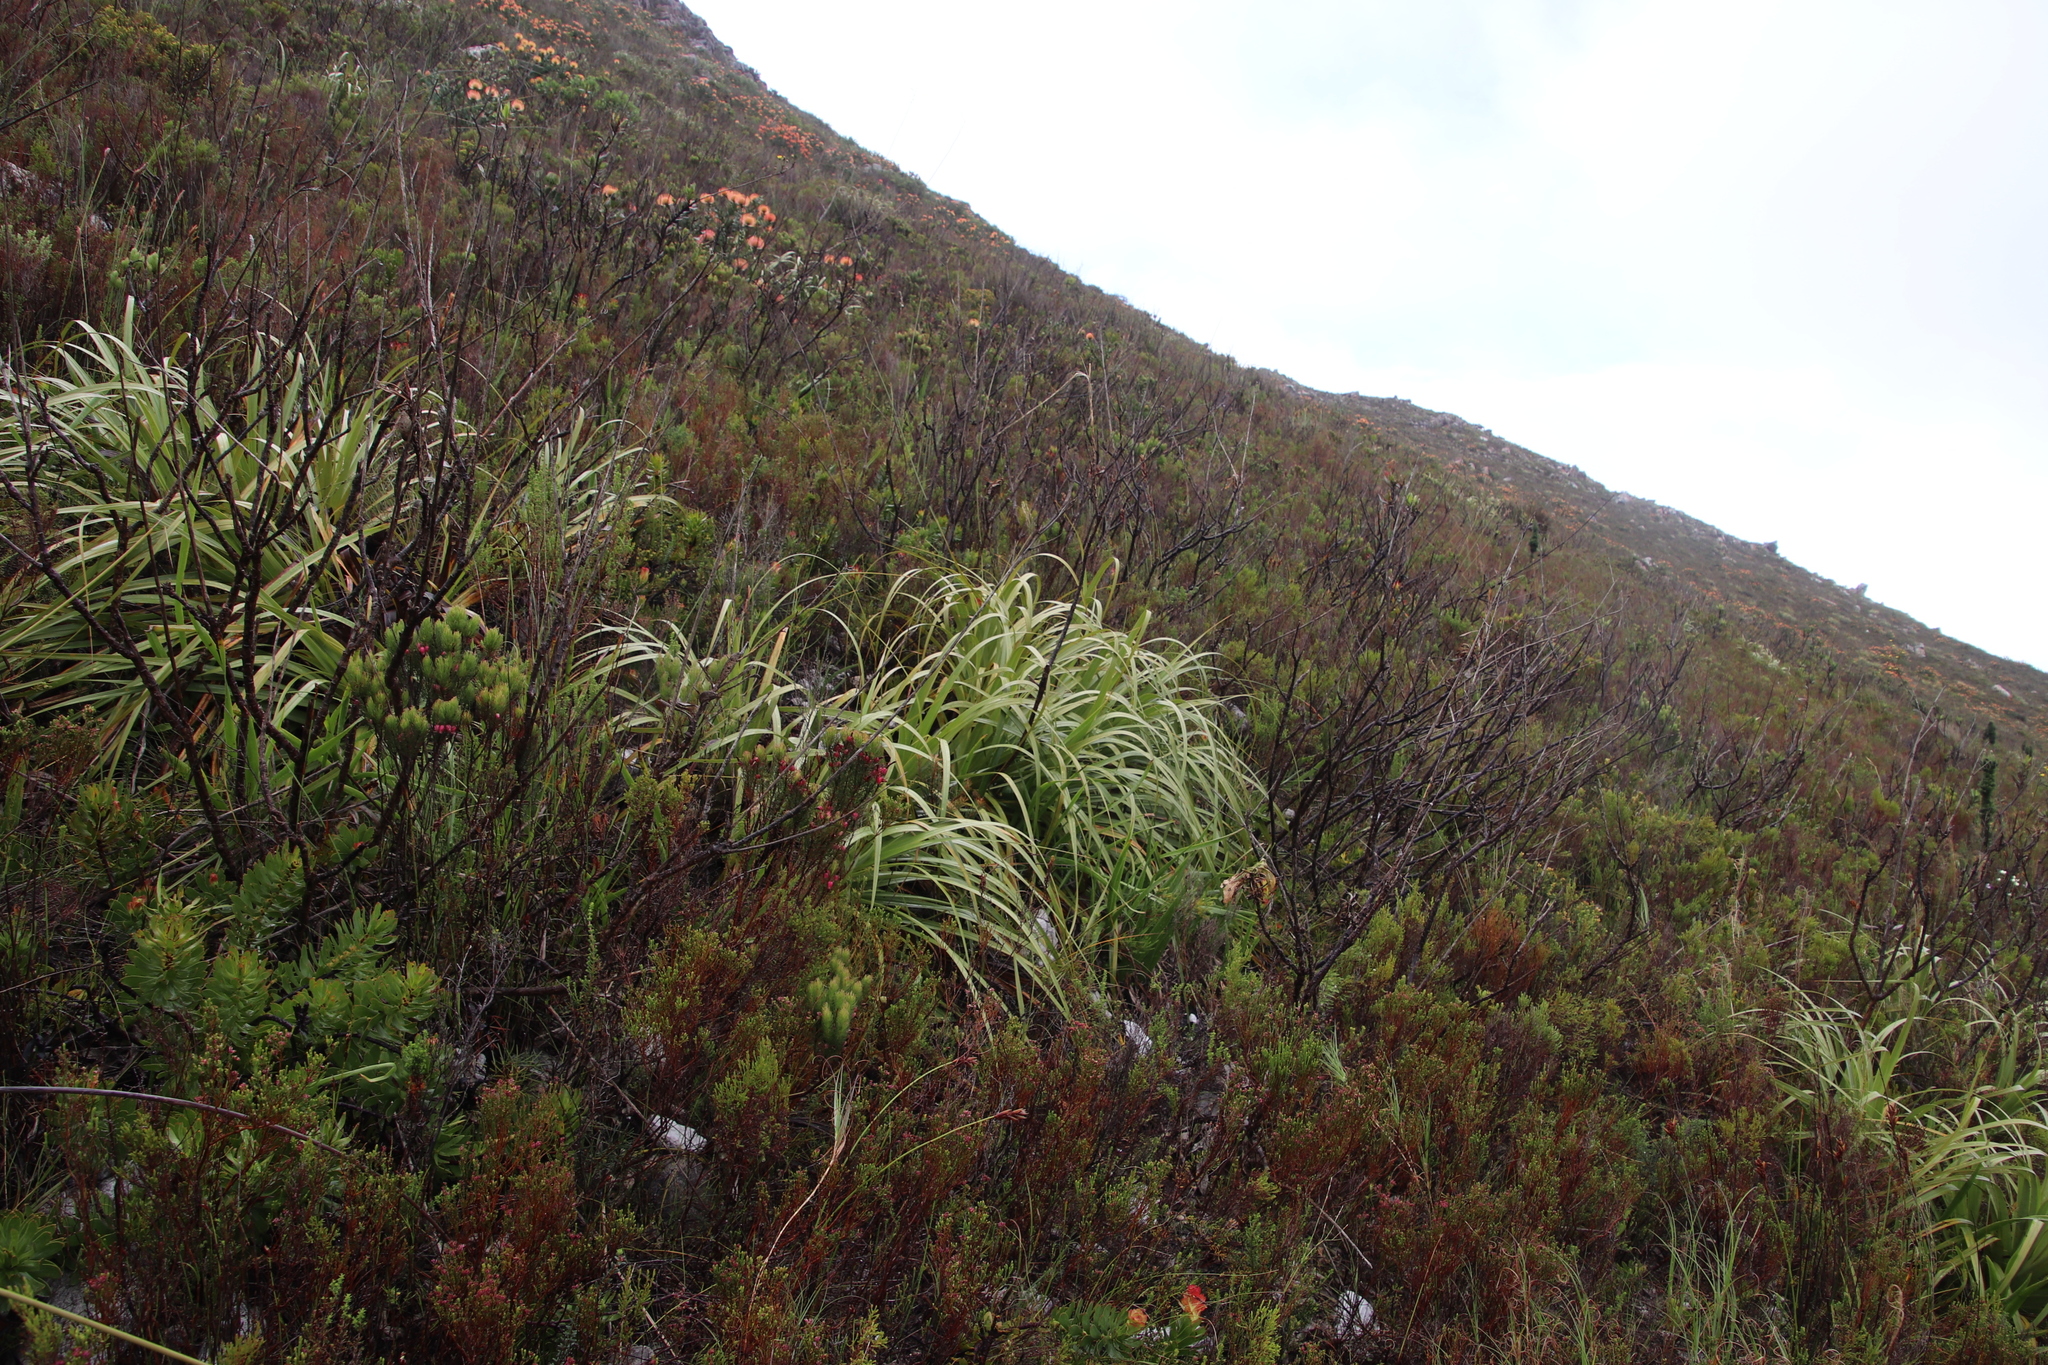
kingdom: Plantae
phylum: Tracheophyta
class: Liliopsida
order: Poales
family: Cyperaceae
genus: Tetraria
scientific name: Tetraria thermalis
